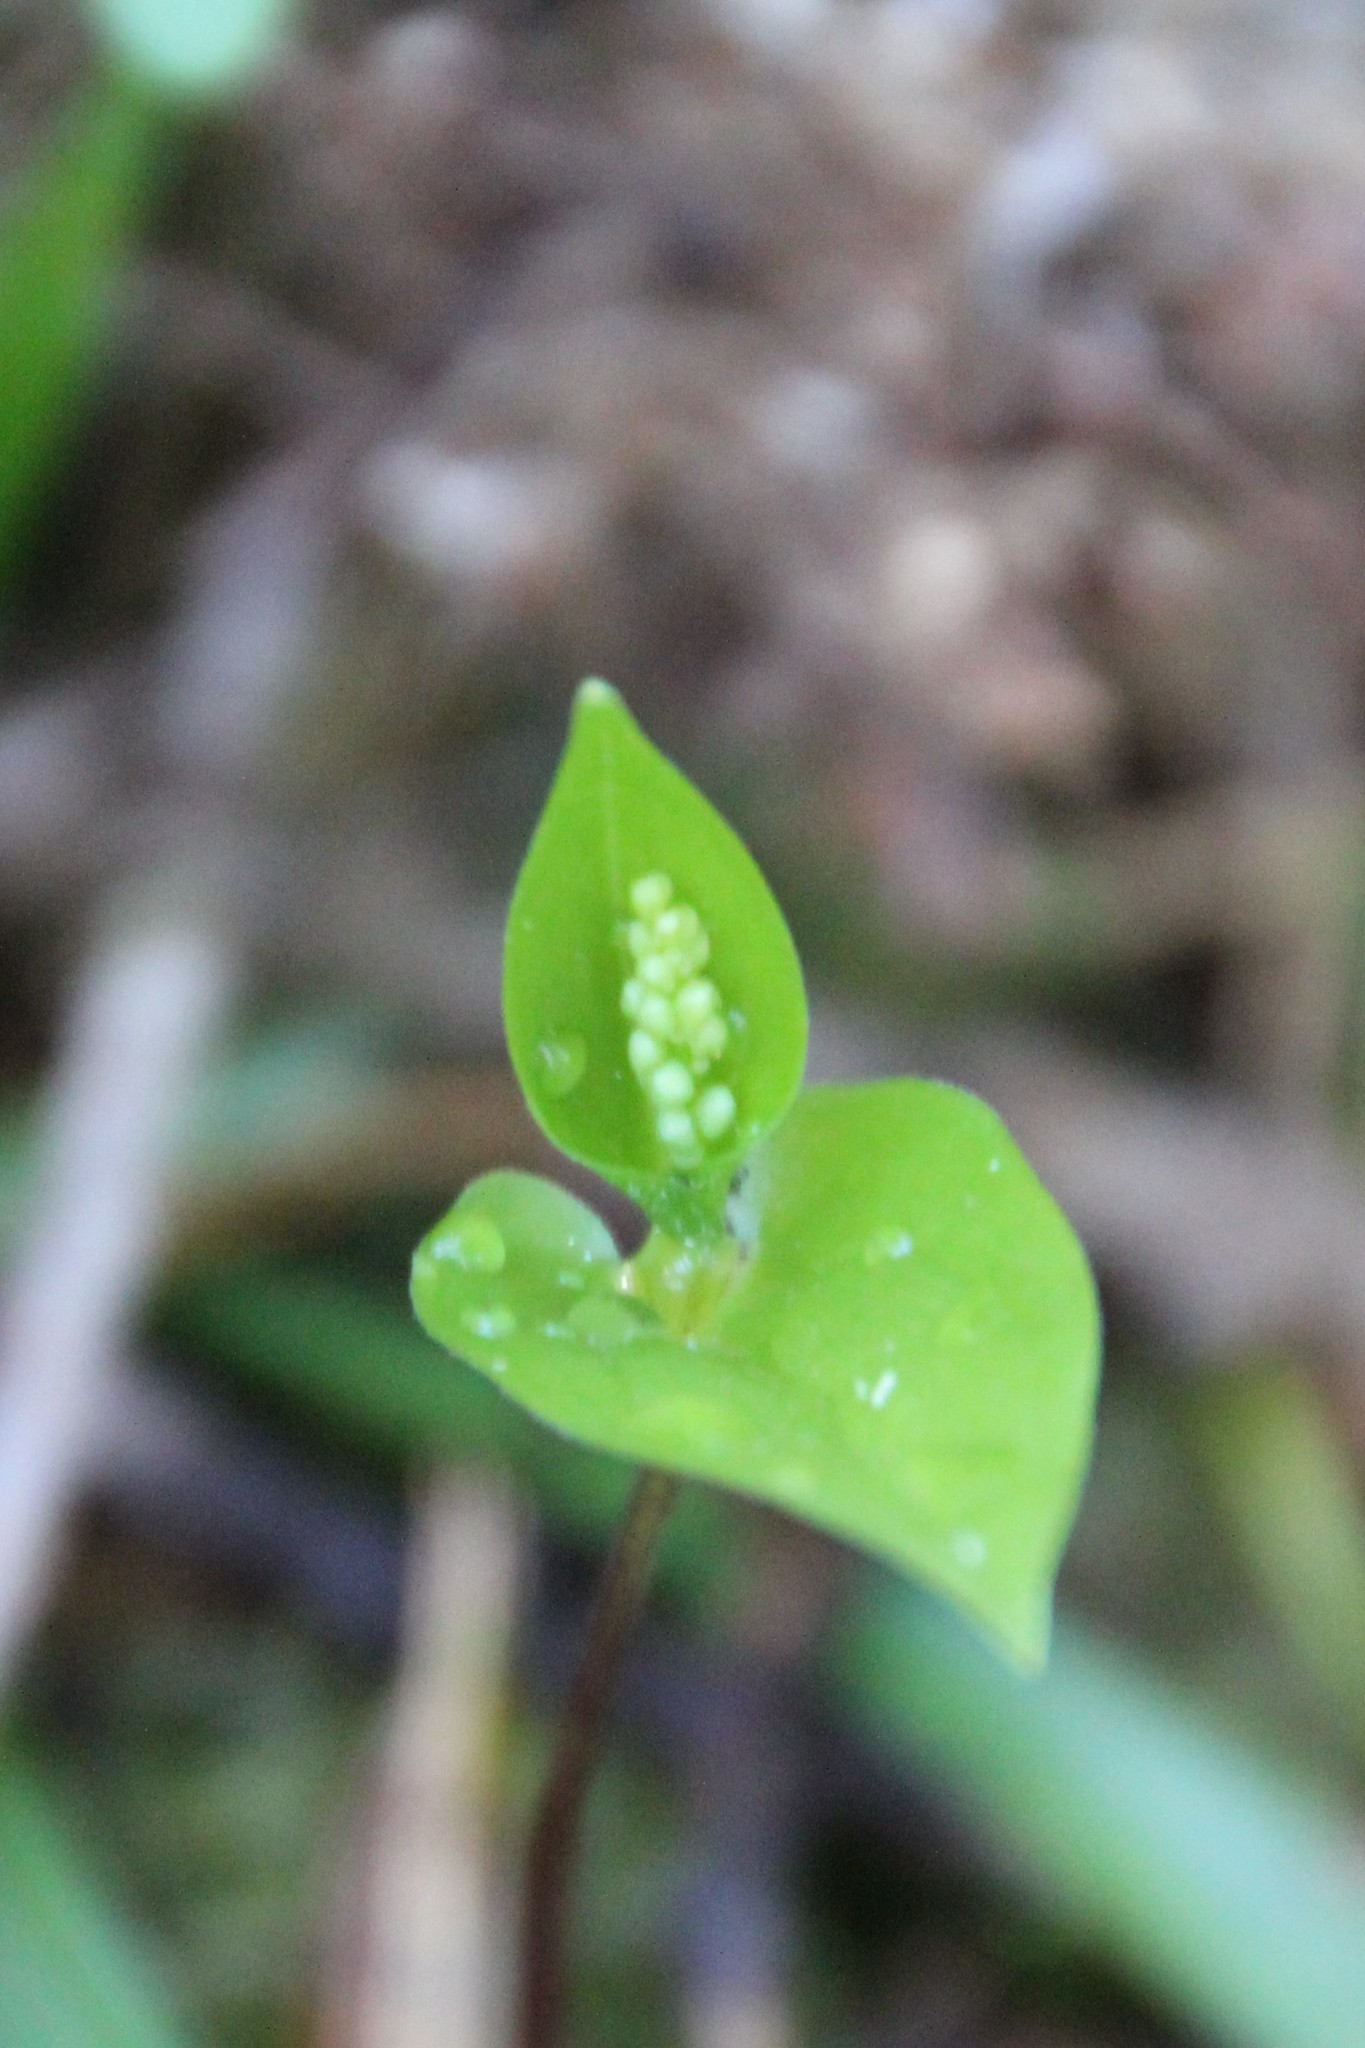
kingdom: Plantae
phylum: Tracheophyta
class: Liliopsida
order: Asparagales
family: Asparagaceae
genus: Maianthemum
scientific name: Maianthemum bifolium
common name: May lily
